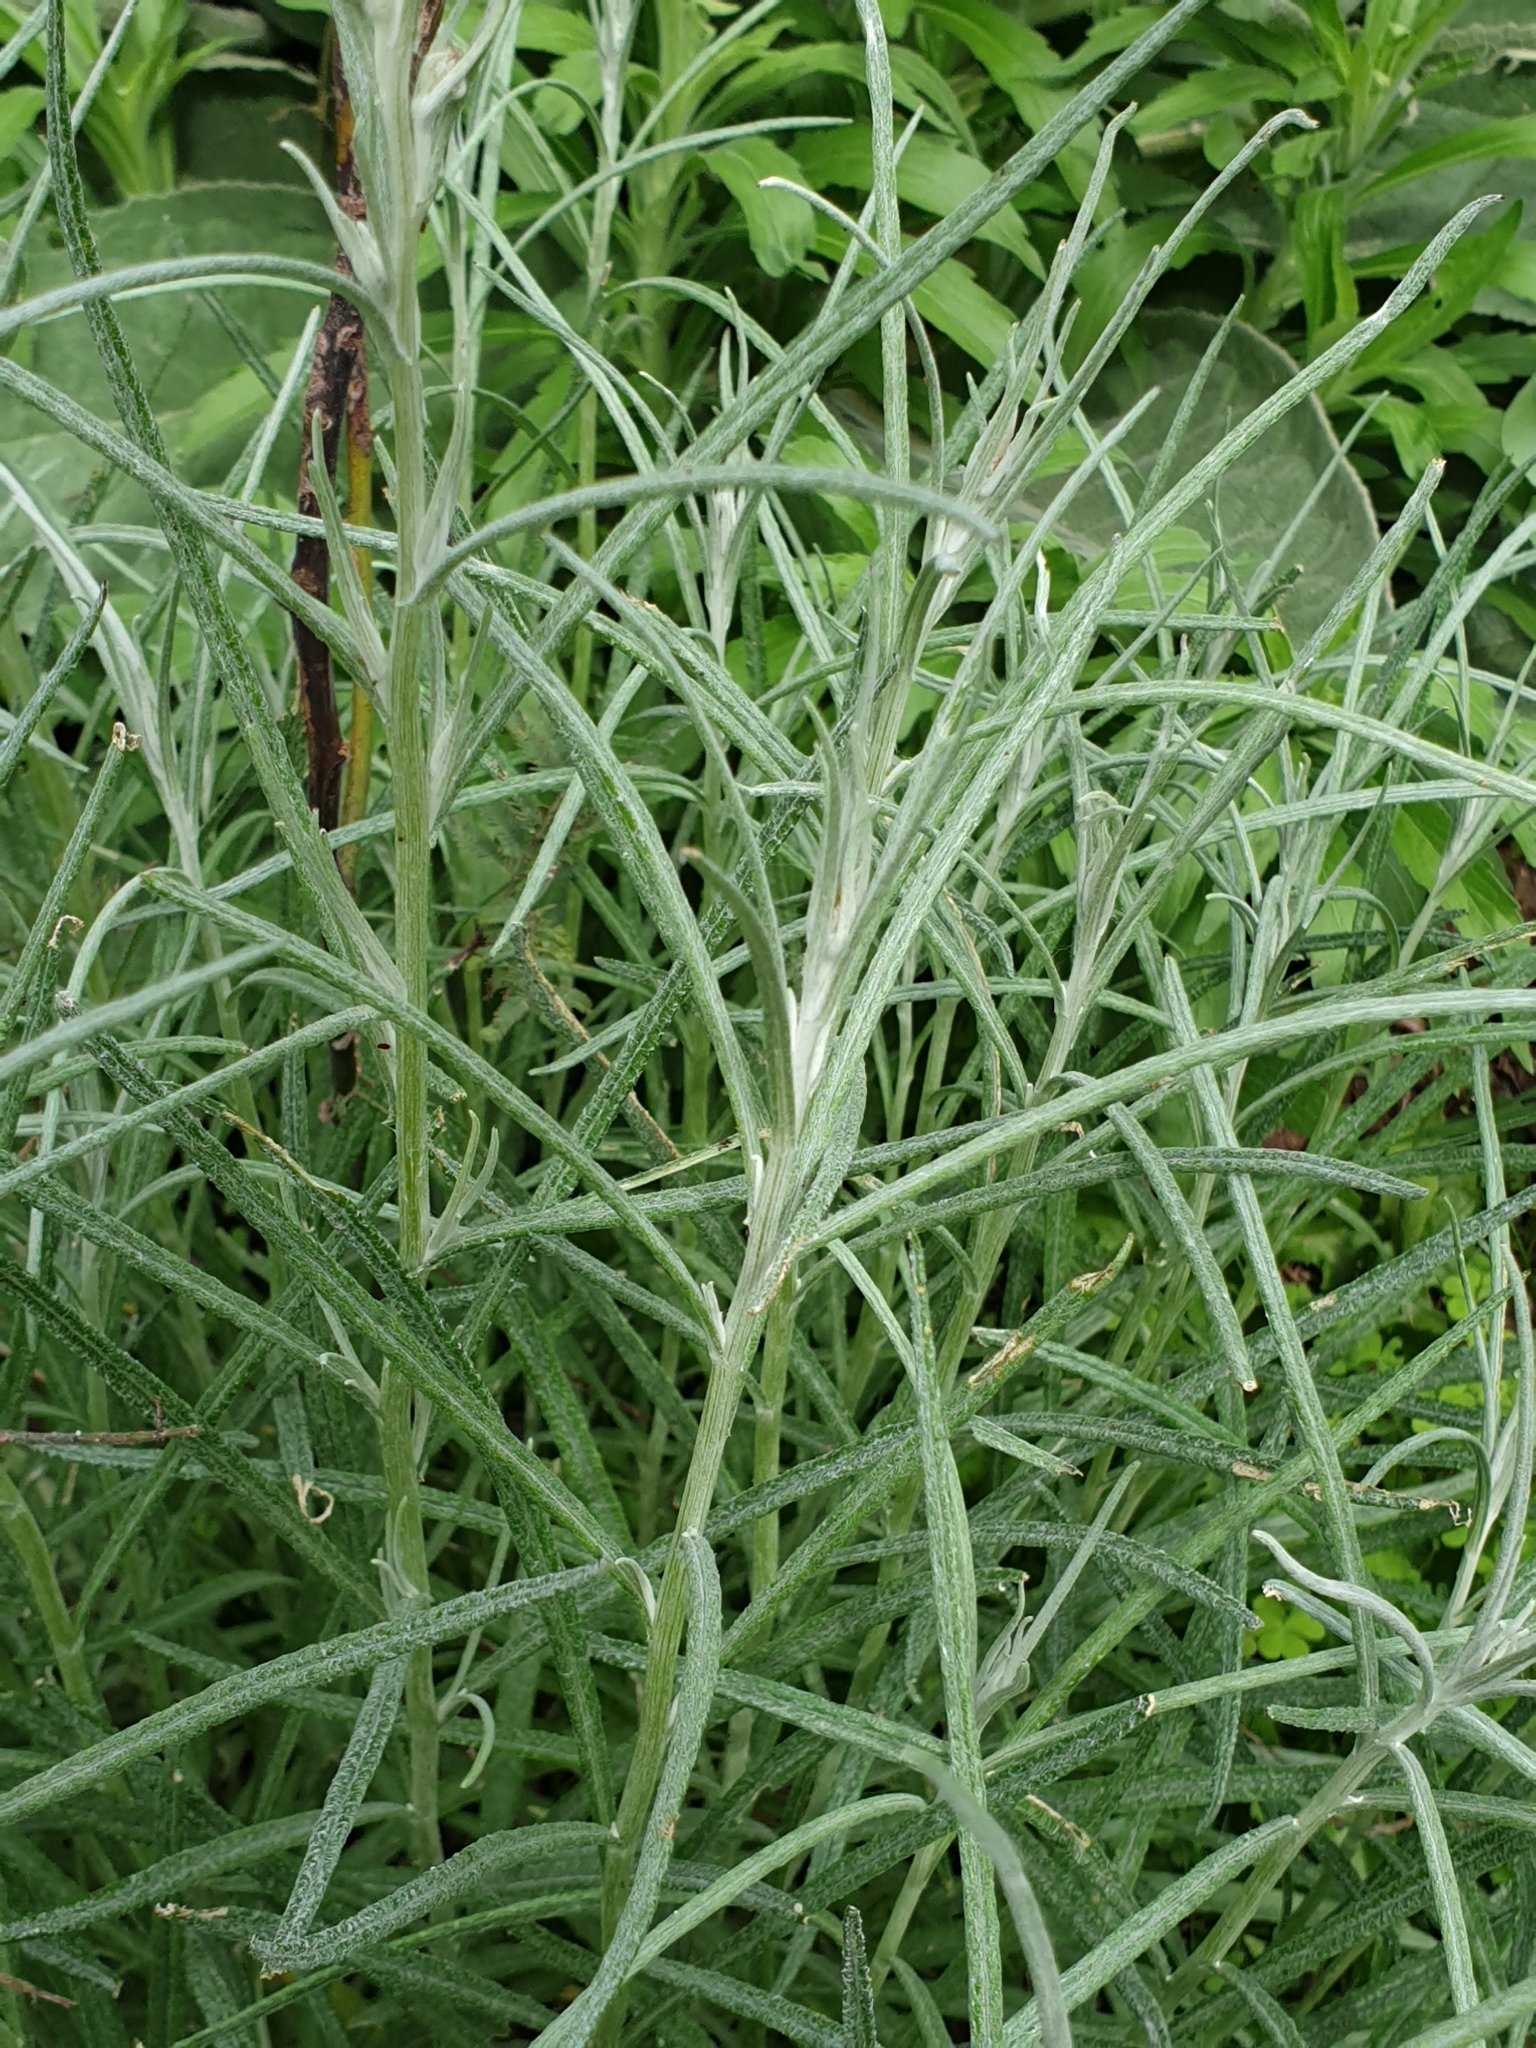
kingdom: Plantae
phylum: Tracheophyta
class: Magnoliopsida
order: Asterales
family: Asteraceae
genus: Senecio
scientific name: Senecio quadridentatus
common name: Cotton fireweed
